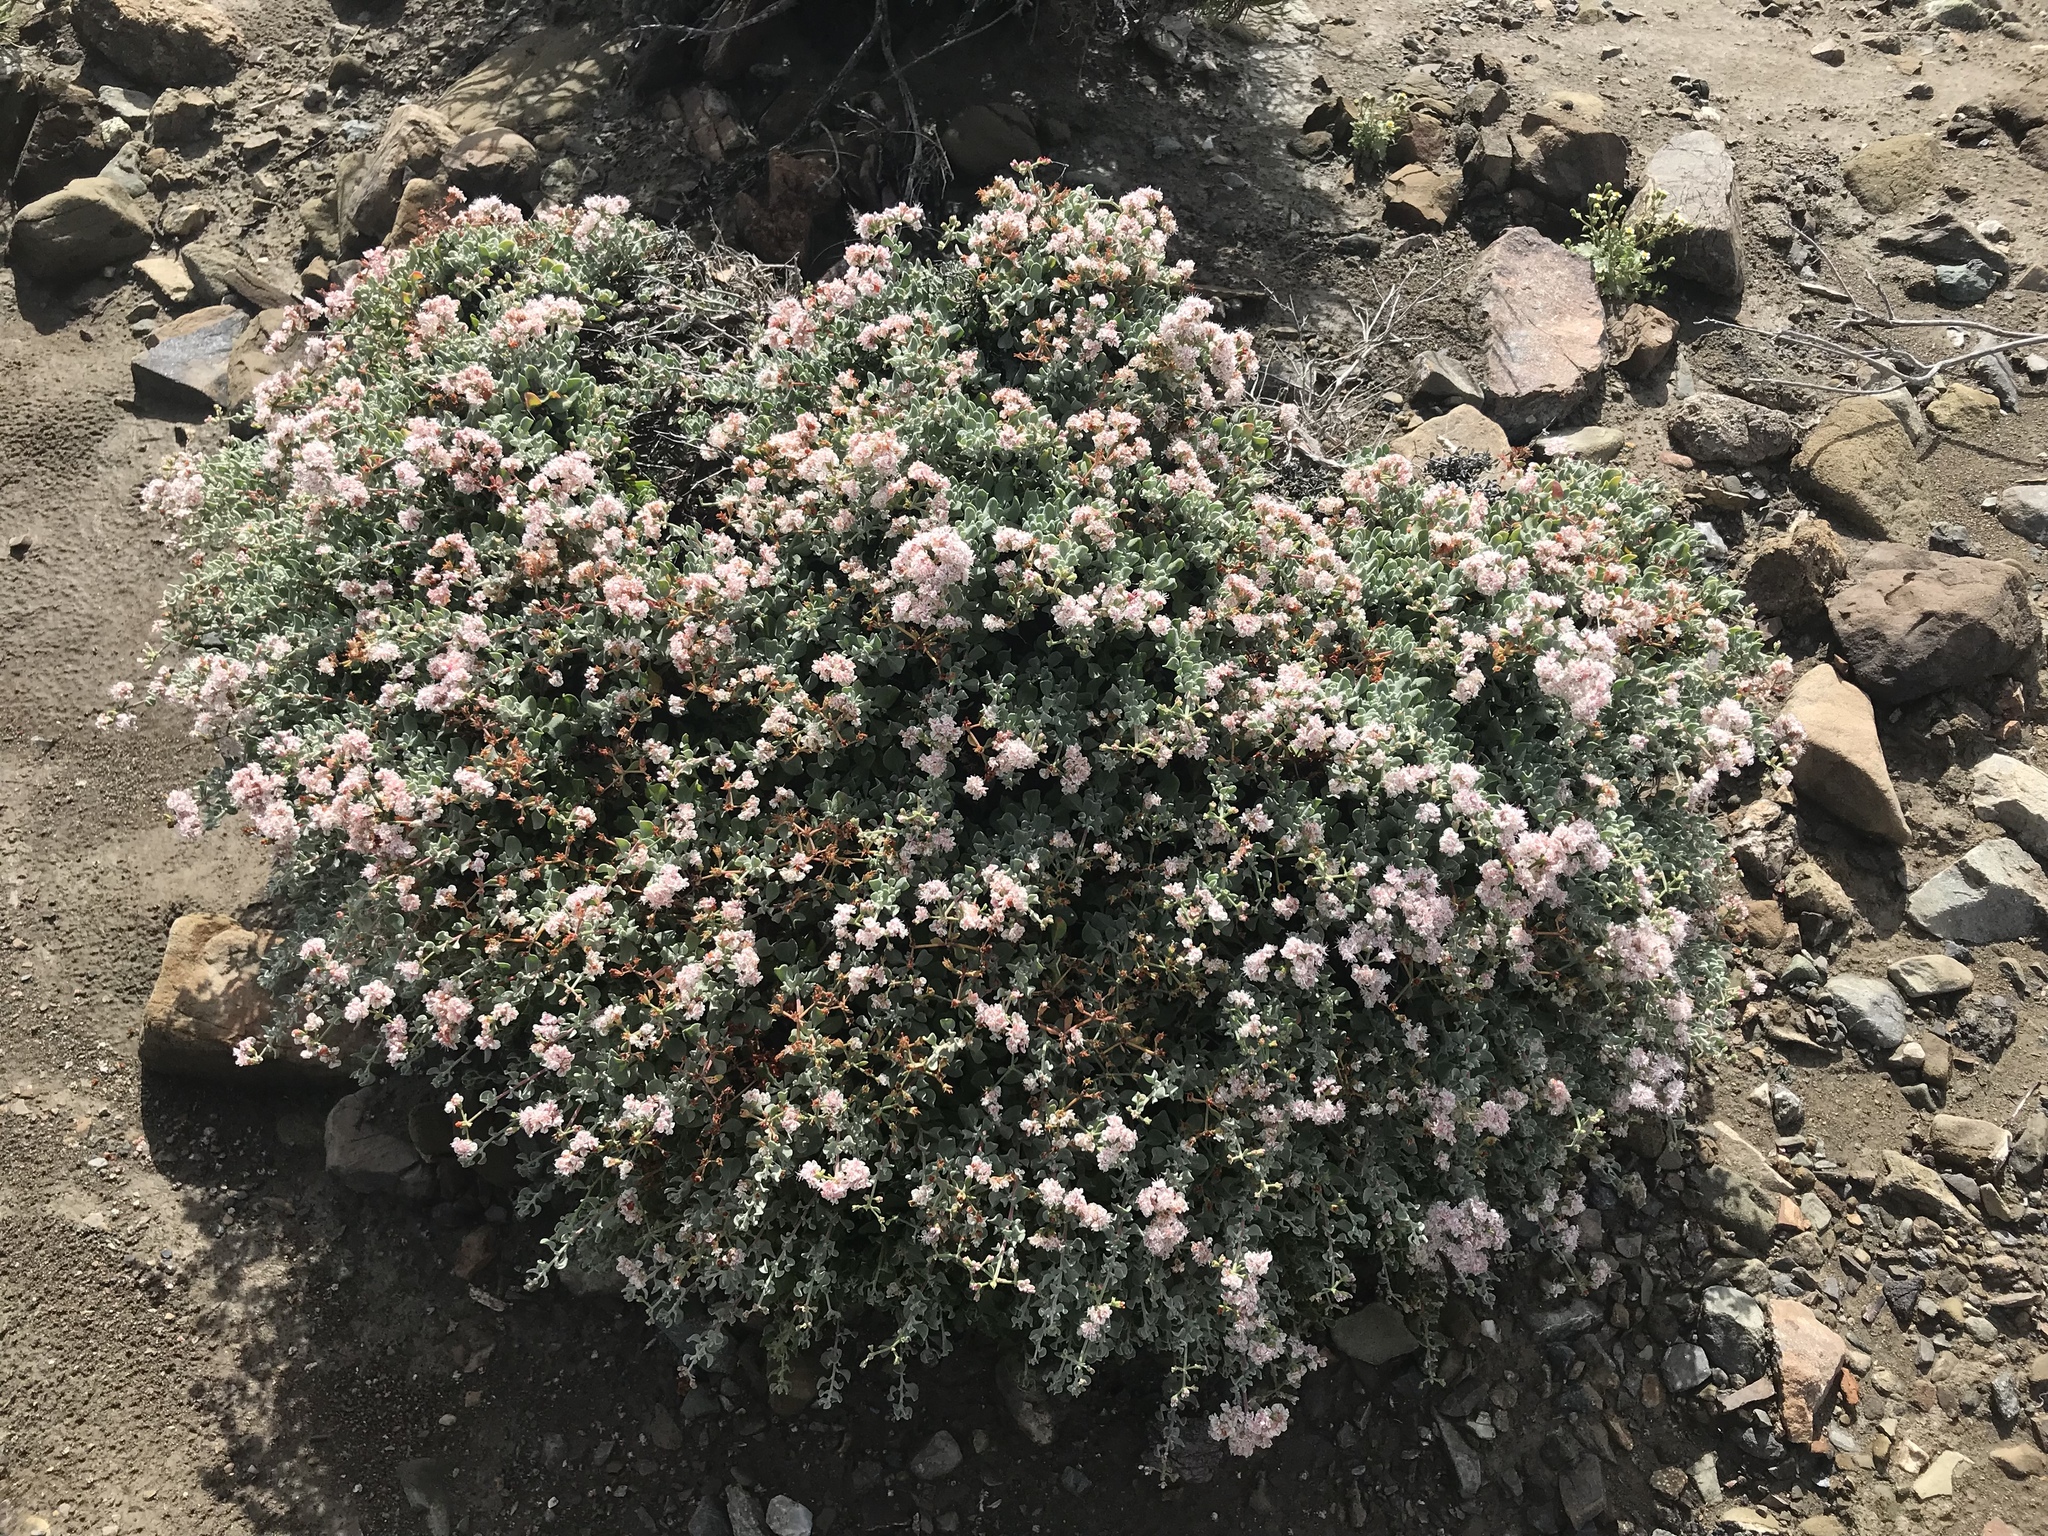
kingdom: Plantae
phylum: Tracheophyta
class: Magnoliopsida
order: Caryophyllales
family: Polygonaceae
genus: Eriogonum
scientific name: Eriogonum pondii
